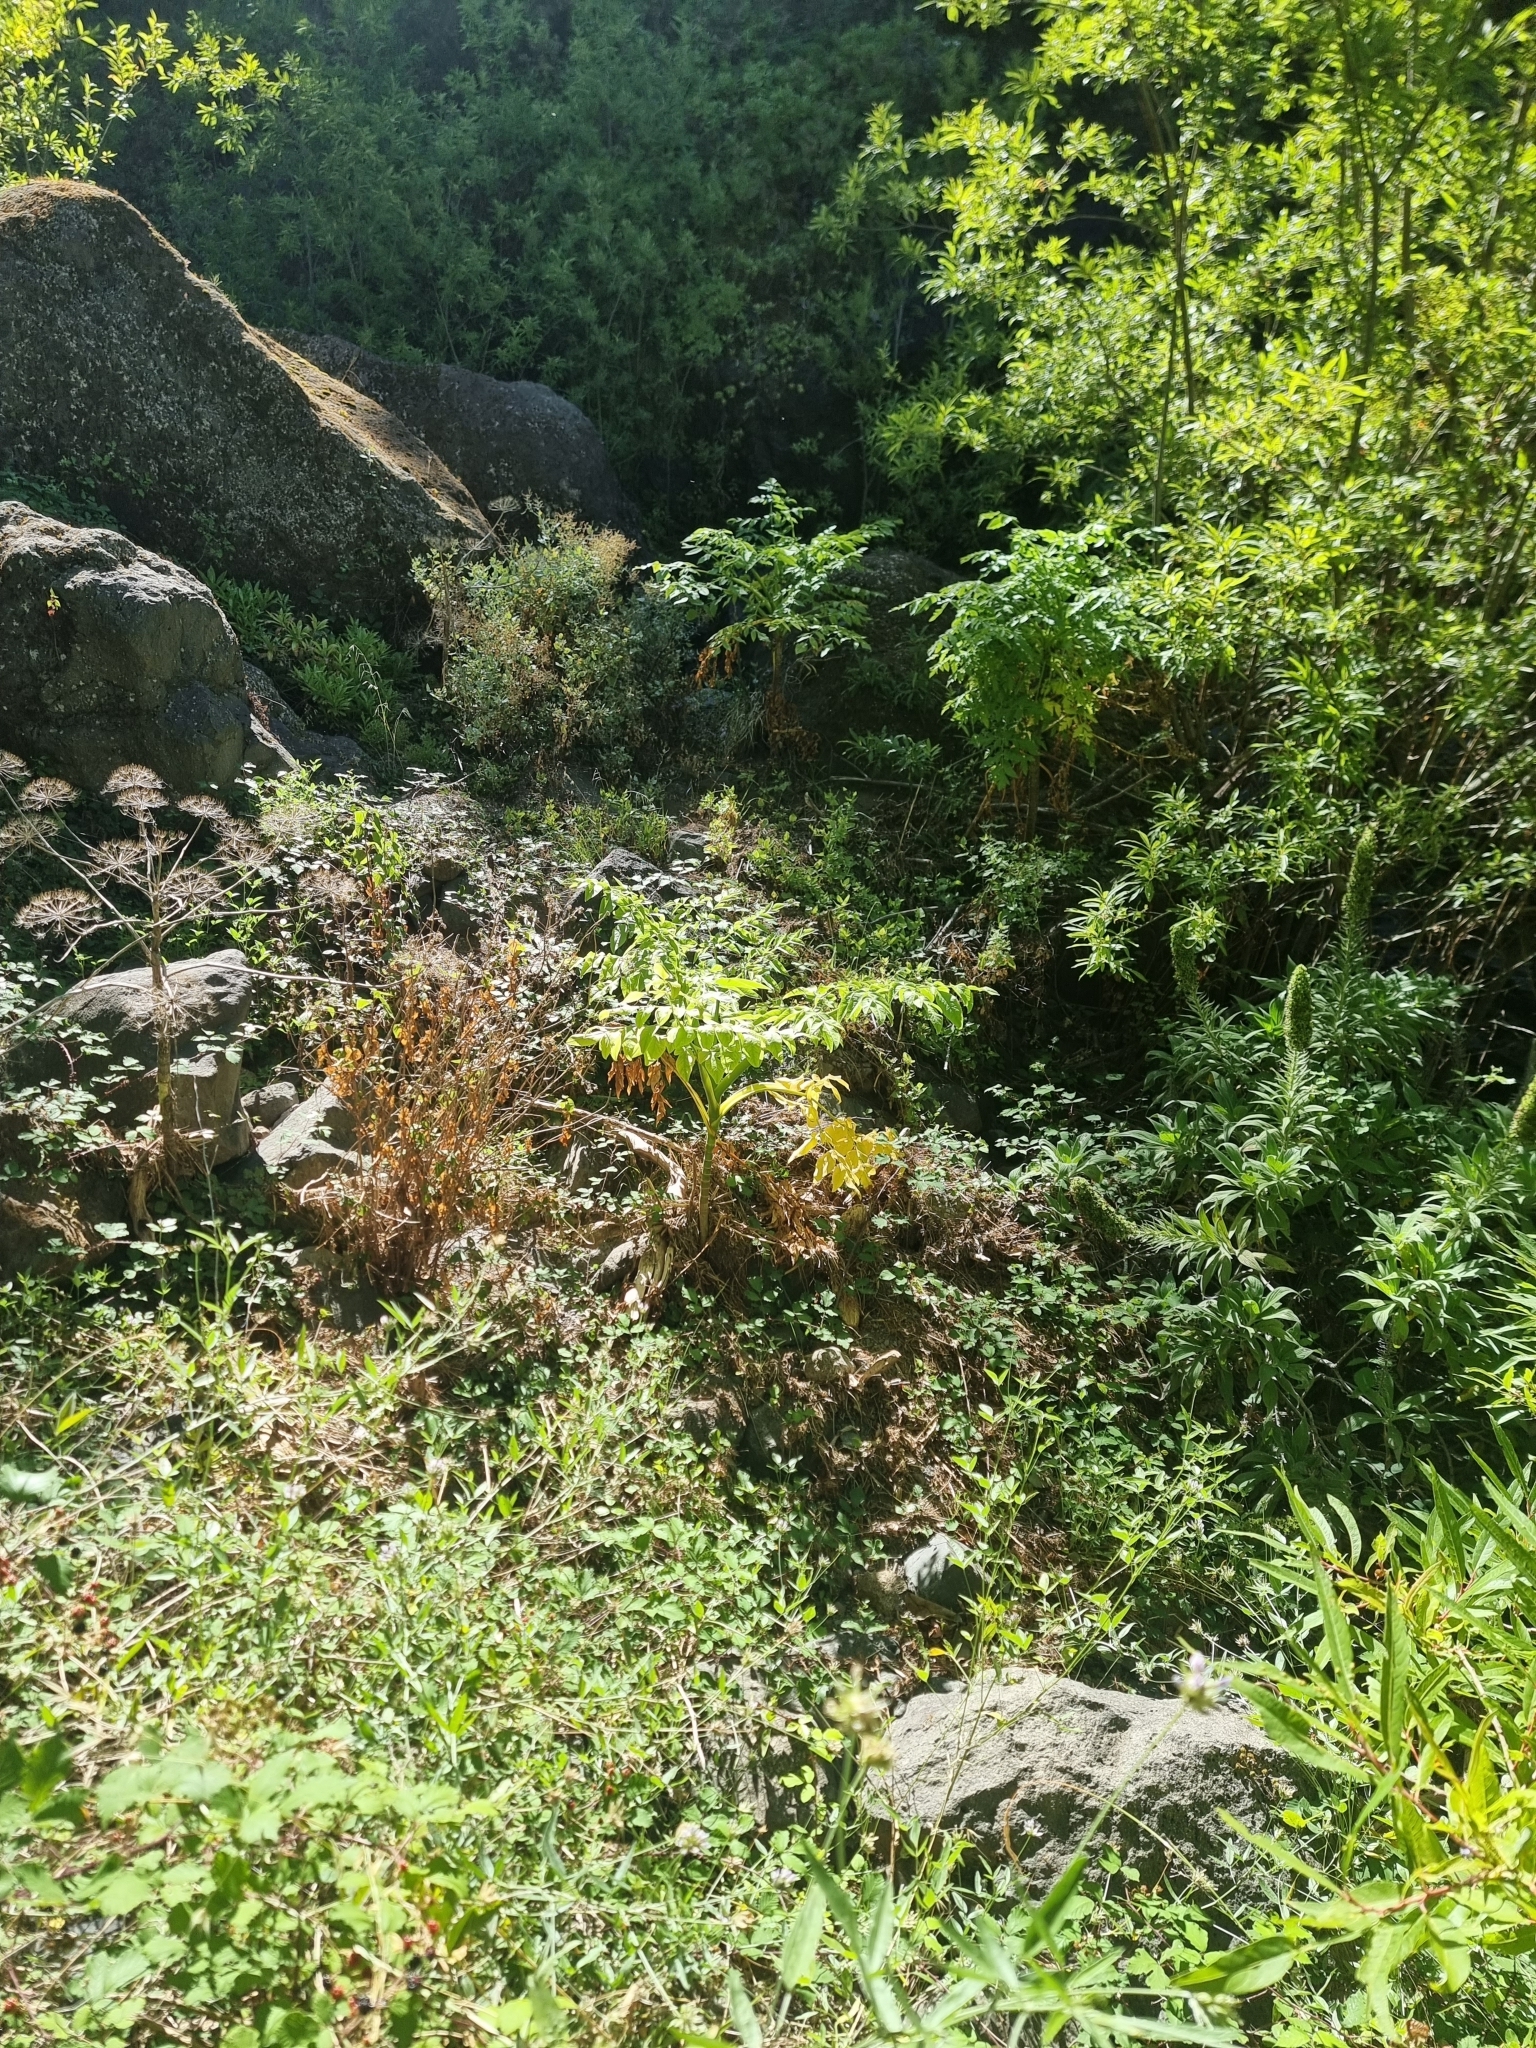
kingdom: Plantae
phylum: Tracheophyta
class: Magnoliopsida
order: Apiales
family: Apiaceae
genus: Daucus
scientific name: Daucus decipiens
